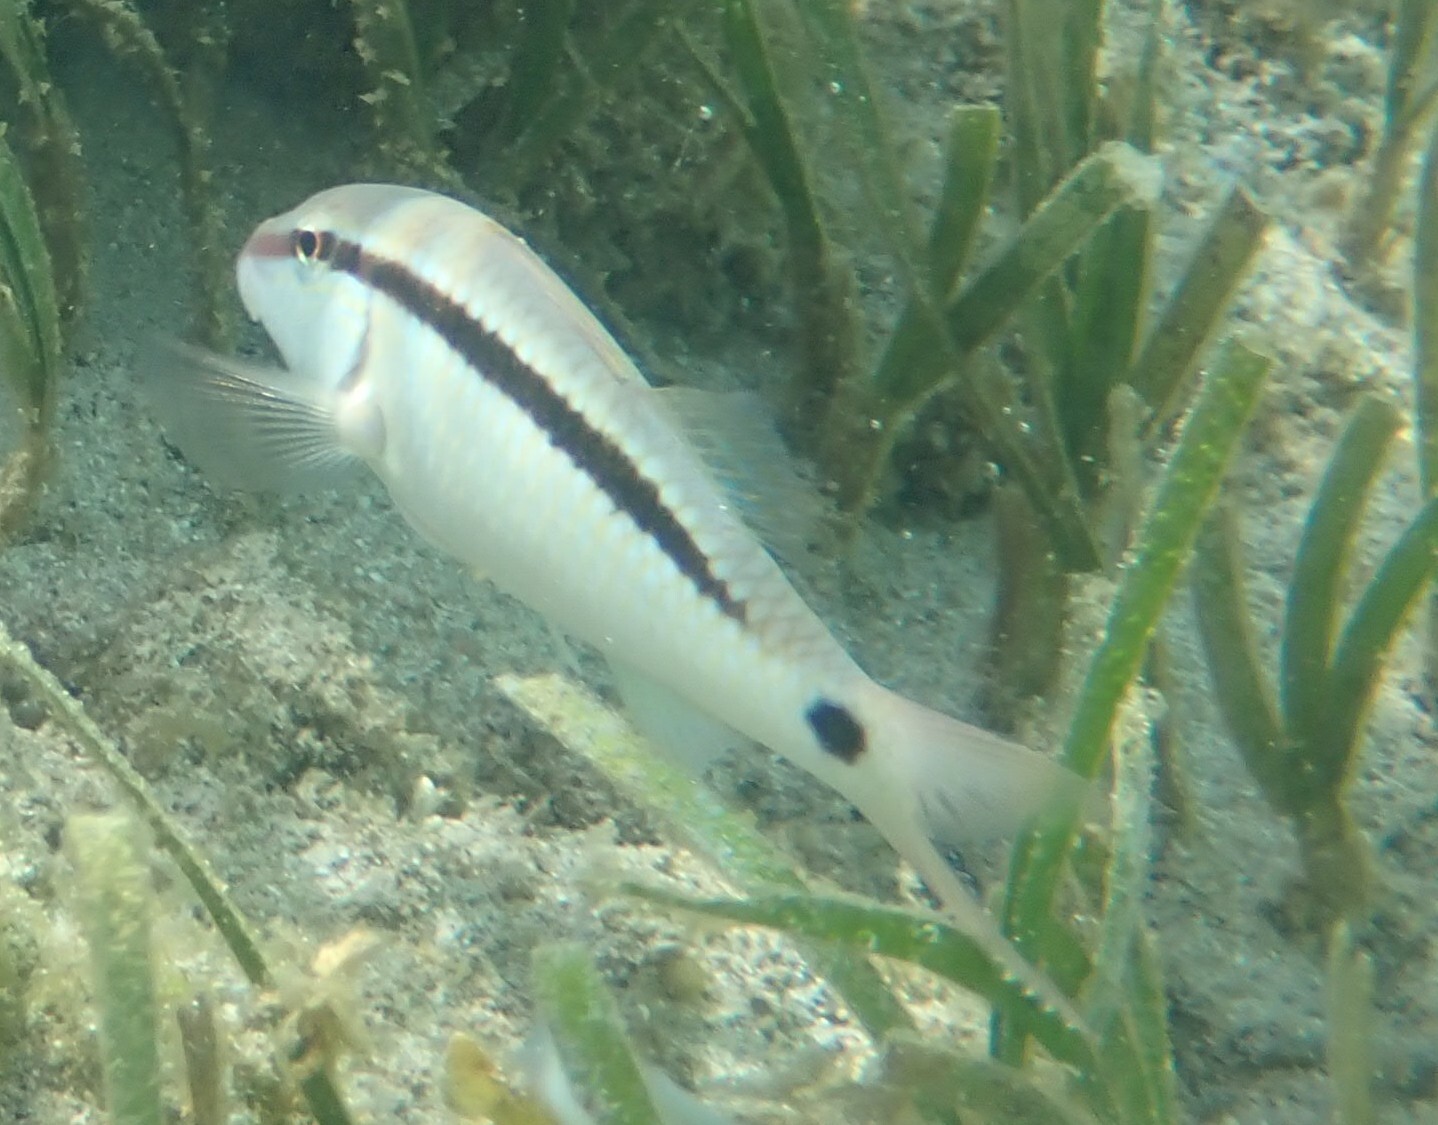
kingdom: Animalia
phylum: Chordata
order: Perciformes
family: Mullidae
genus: Parupeneus
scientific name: Parupeneus barberinus
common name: Dash-and-dot goatfish
